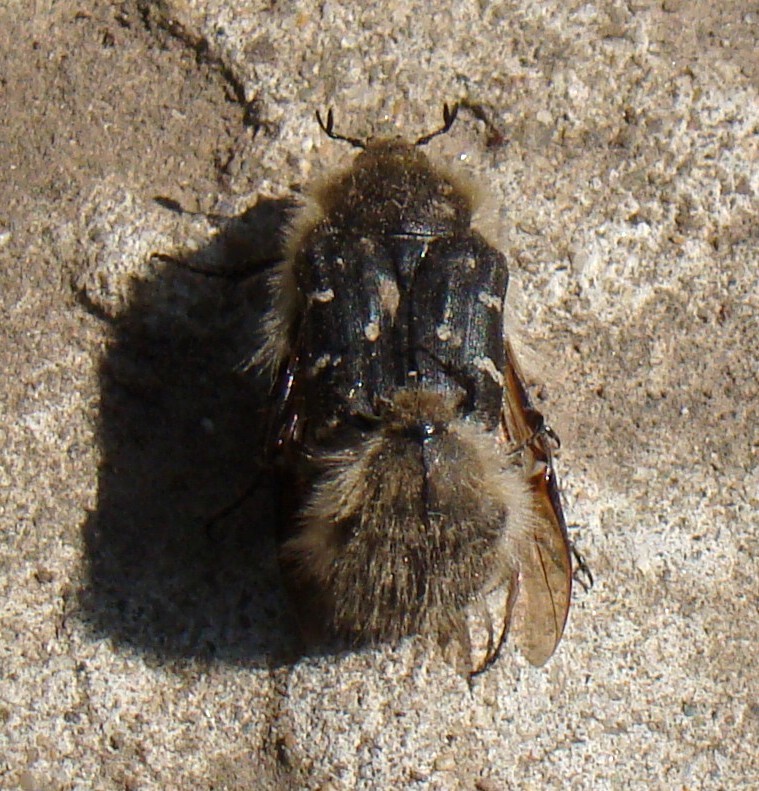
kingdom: Animalia
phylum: Arthropoda
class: Insecta
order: Coleoptera
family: Scarabaeidae
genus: Tropinota
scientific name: Tropinota hirta
